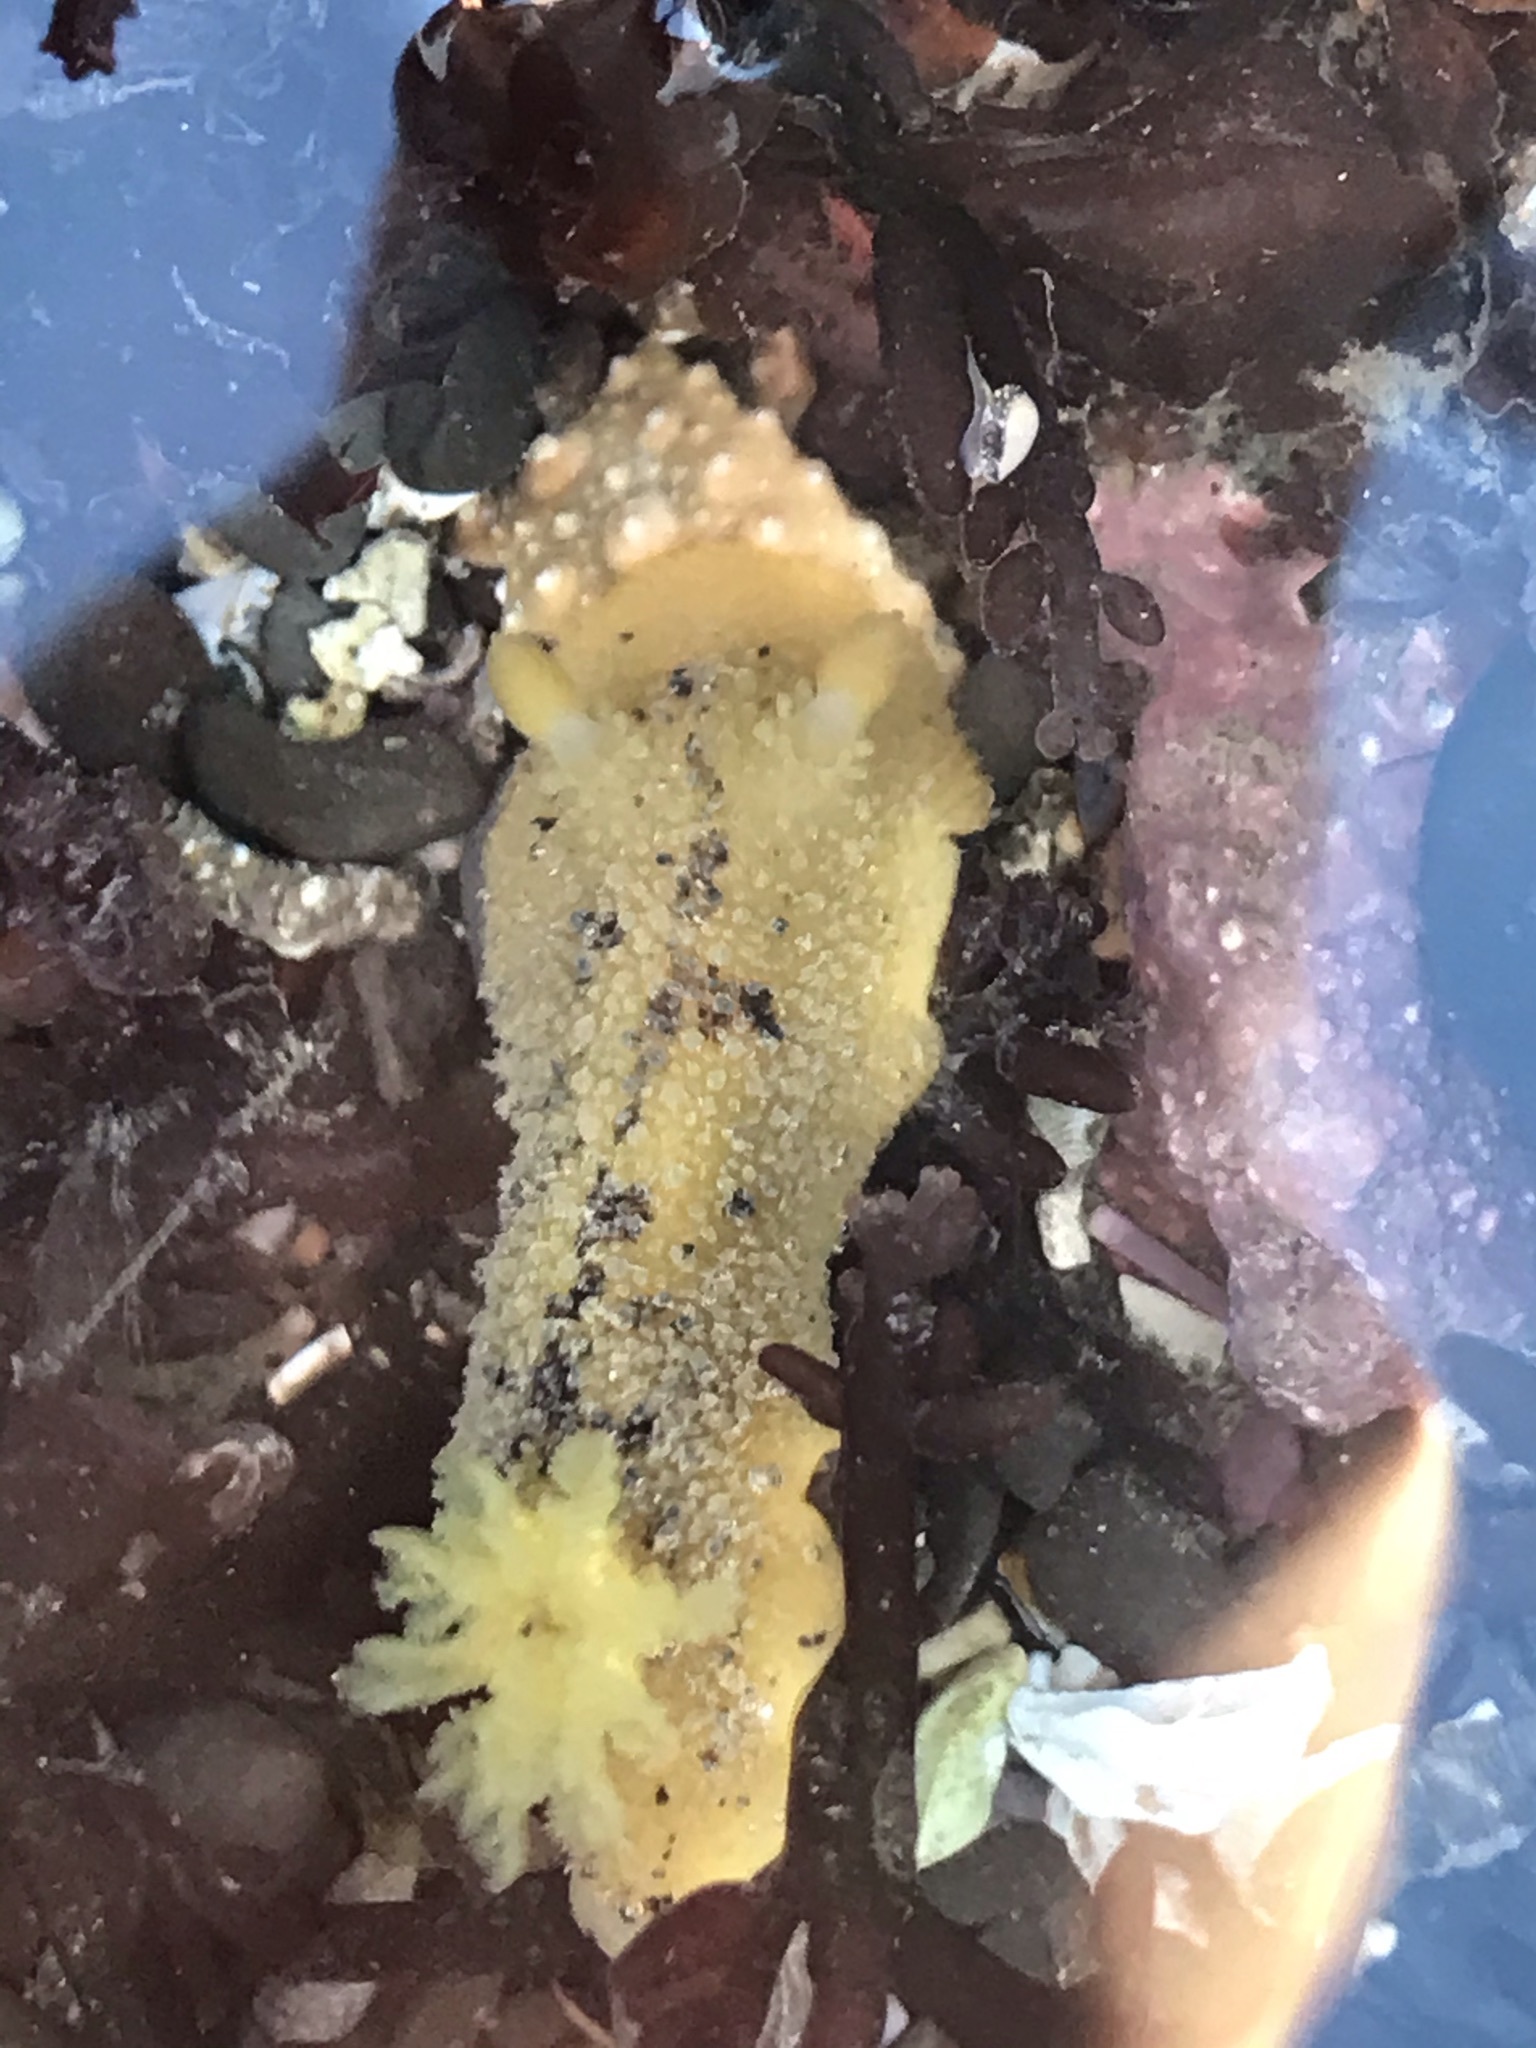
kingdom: Animalia
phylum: Mollusca
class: Gastropoda
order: Nudibranchia
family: Dorididae
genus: Doris
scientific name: Doris montereyensis
